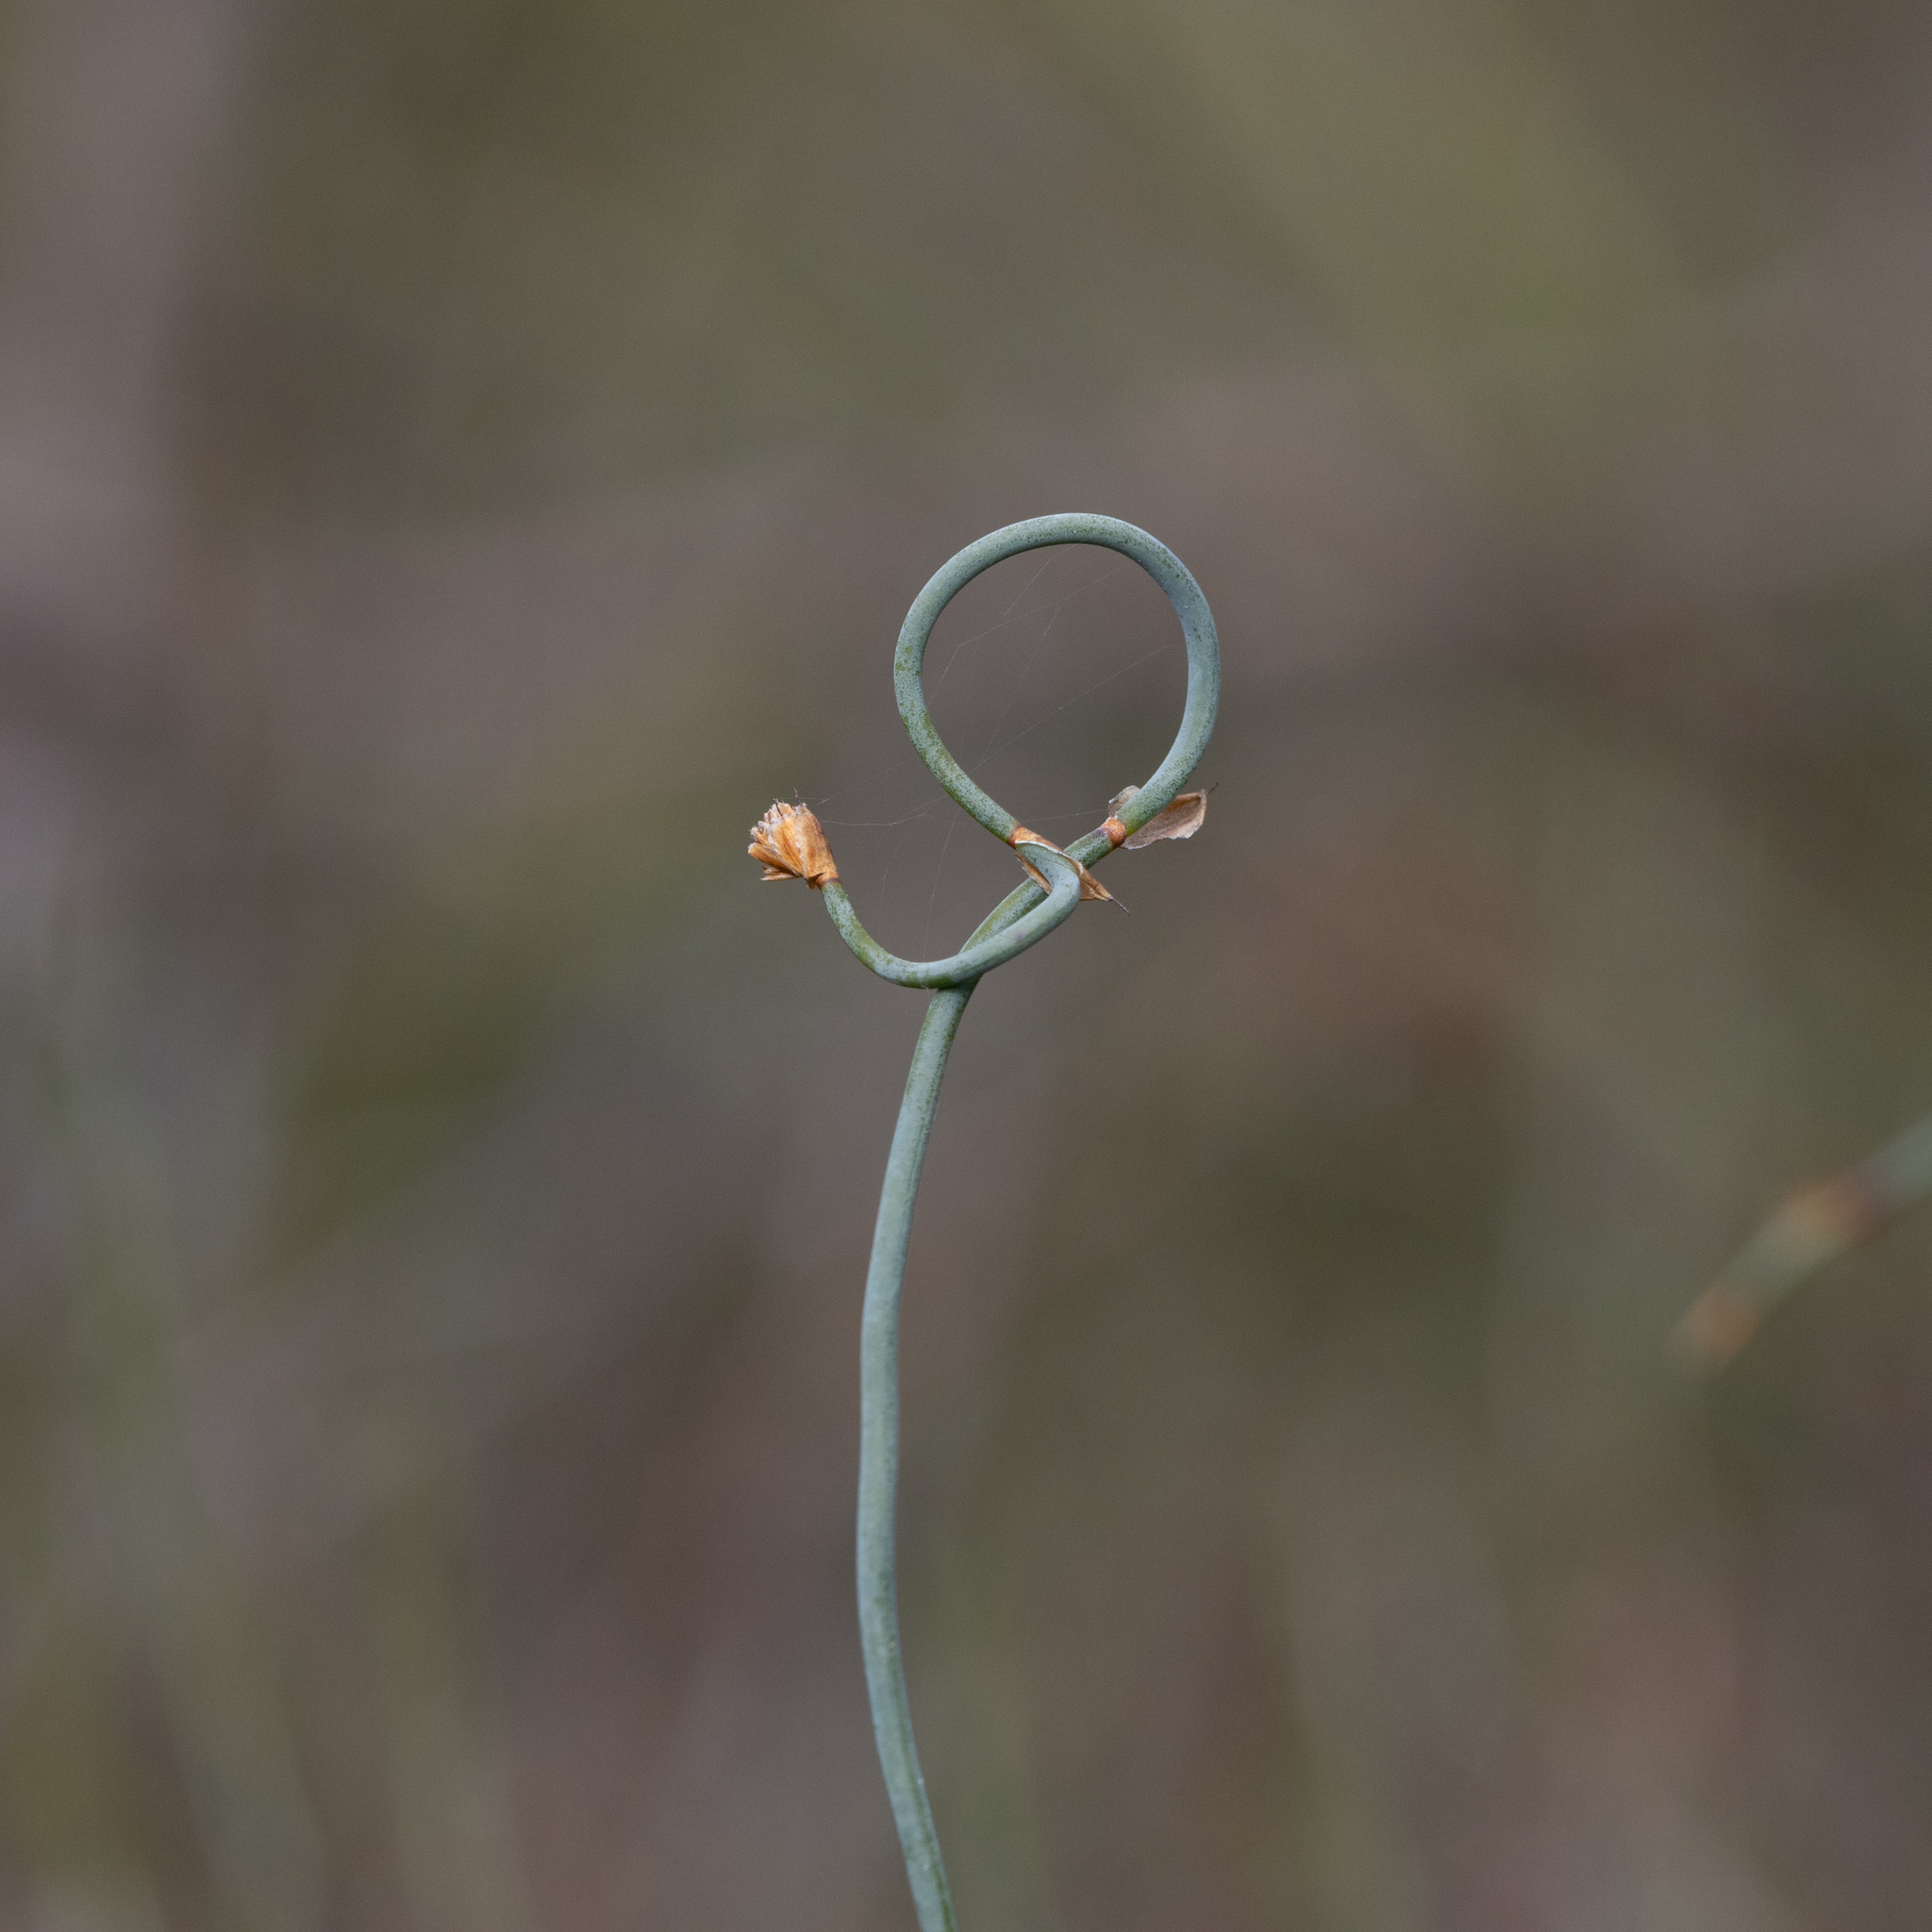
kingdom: Plantae
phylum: Tracheophyta
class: Liliopsida
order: Poales
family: Restionaceae
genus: Lepidobolus
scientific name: Lepidobolus drapetocoleus
